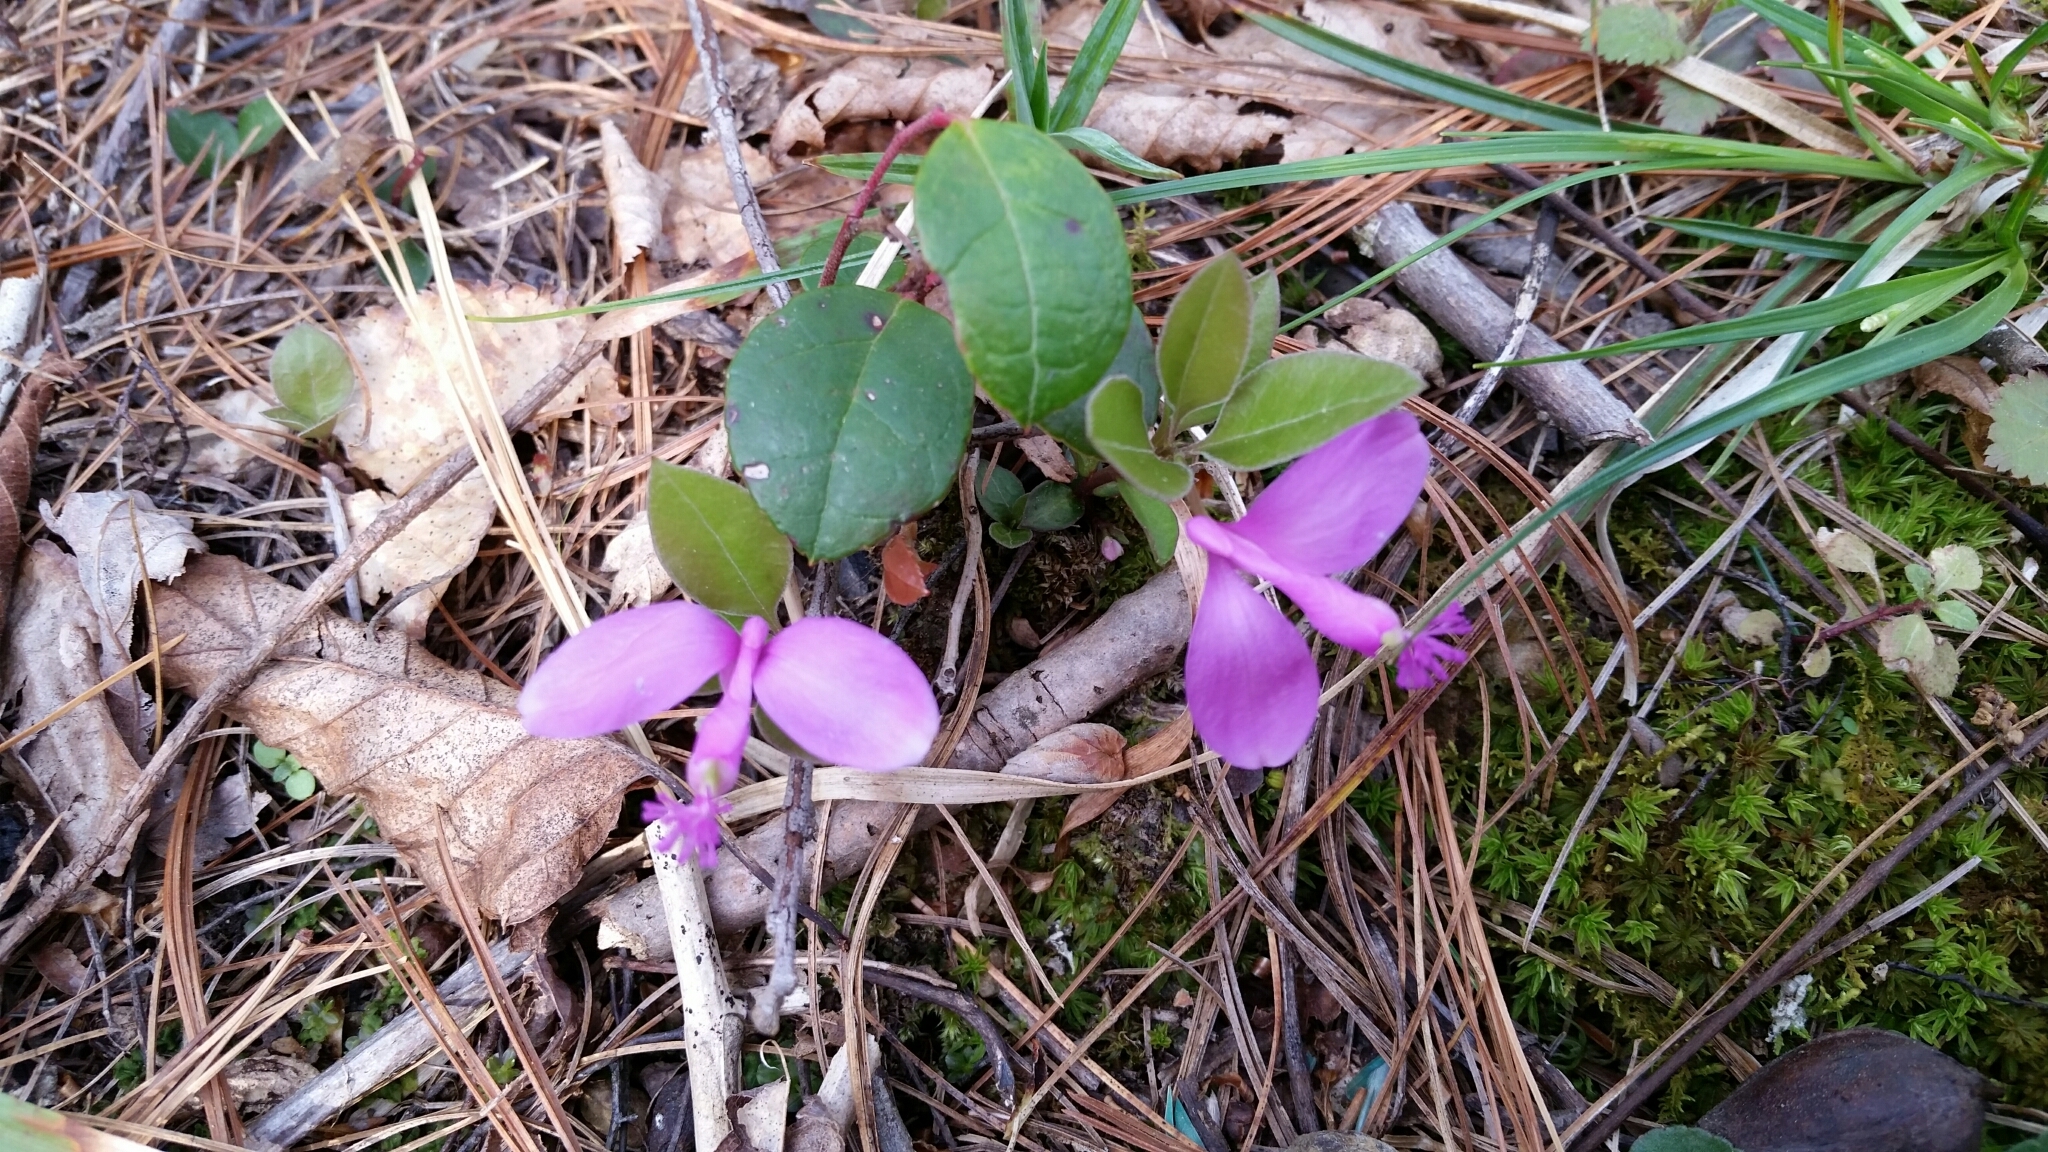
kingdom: Plantae
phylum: Tracheophyta
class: Magnoliopsida
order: Fabales
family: Polygalaceae
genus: Polygaloides
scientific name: Polygaloides paucifolia
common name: Bird-on-the-wing
